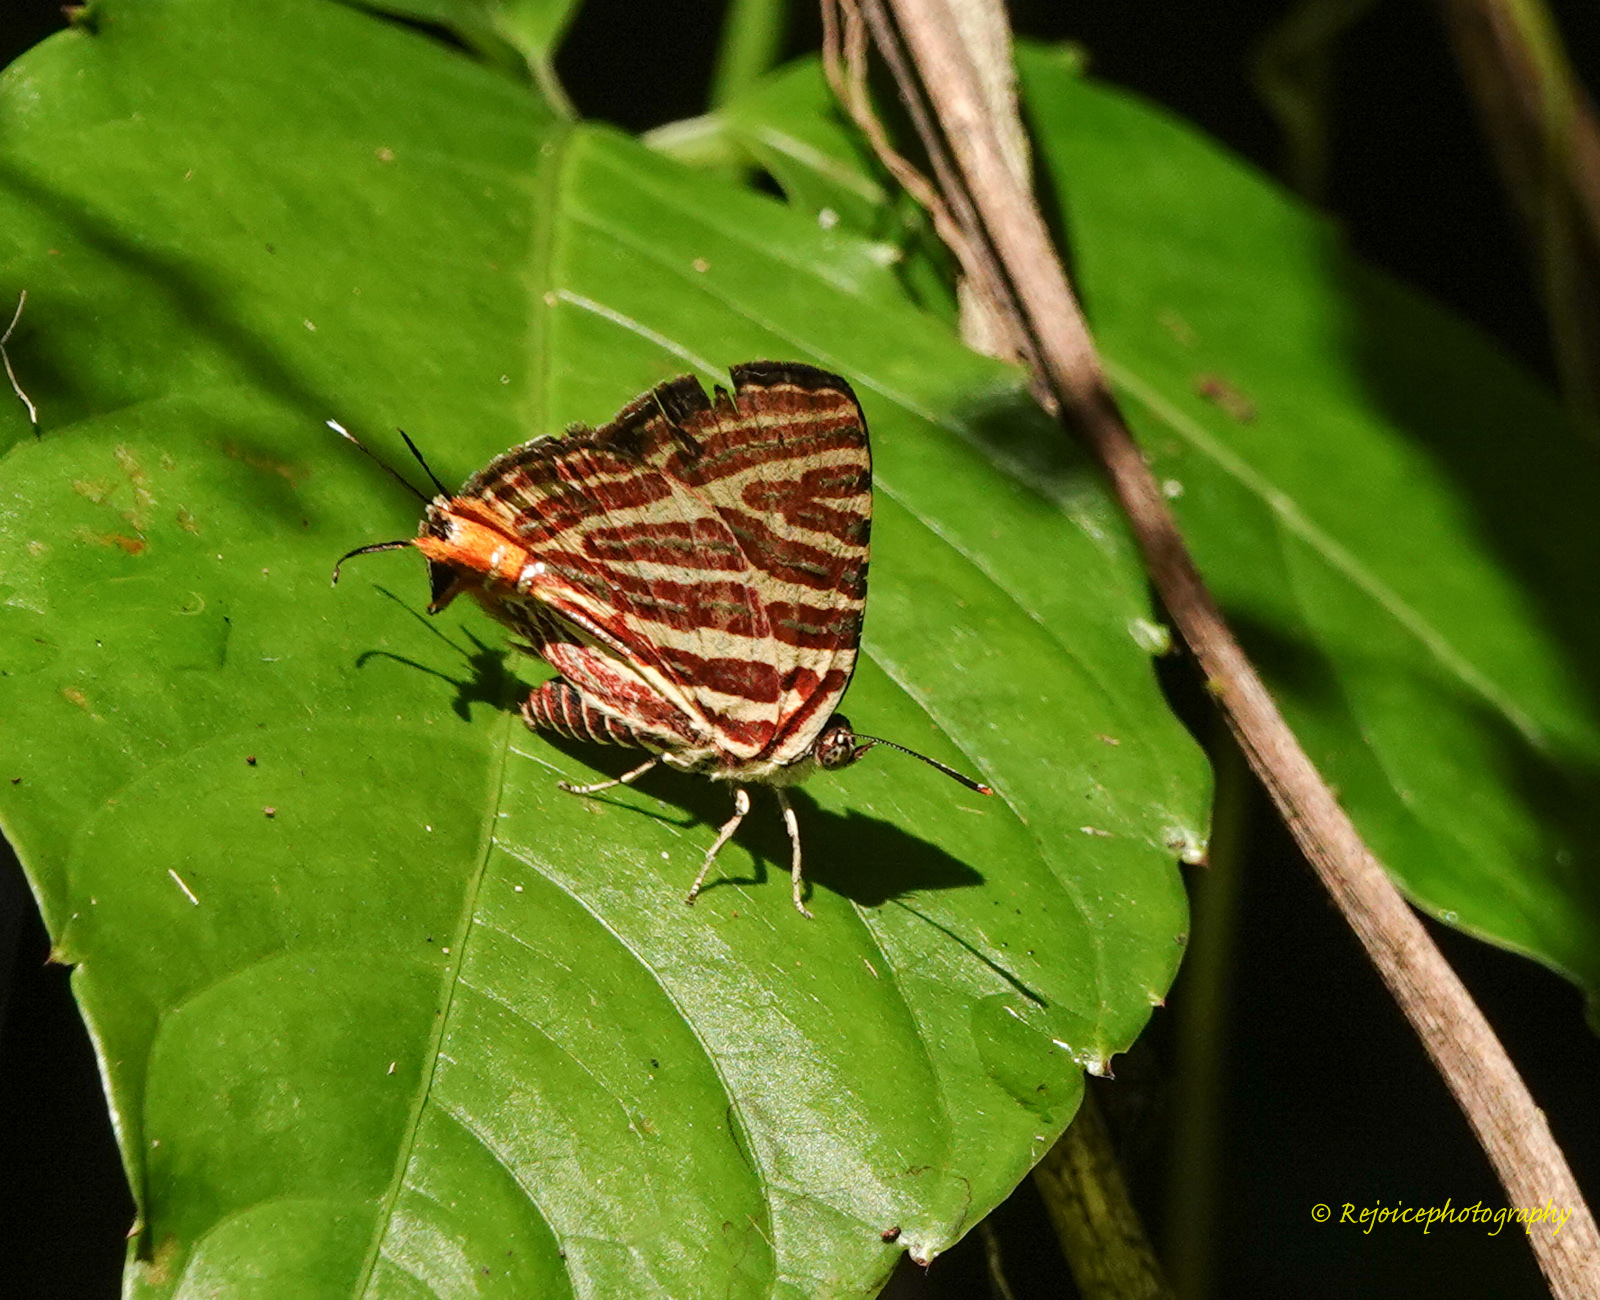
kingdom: Animalia
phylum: Arthropoda
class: Insecta
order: Lepidoptera
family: Lycaenidae
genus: Cigaritis
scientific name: Cigaritis lohita
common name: Long-banded silverline
